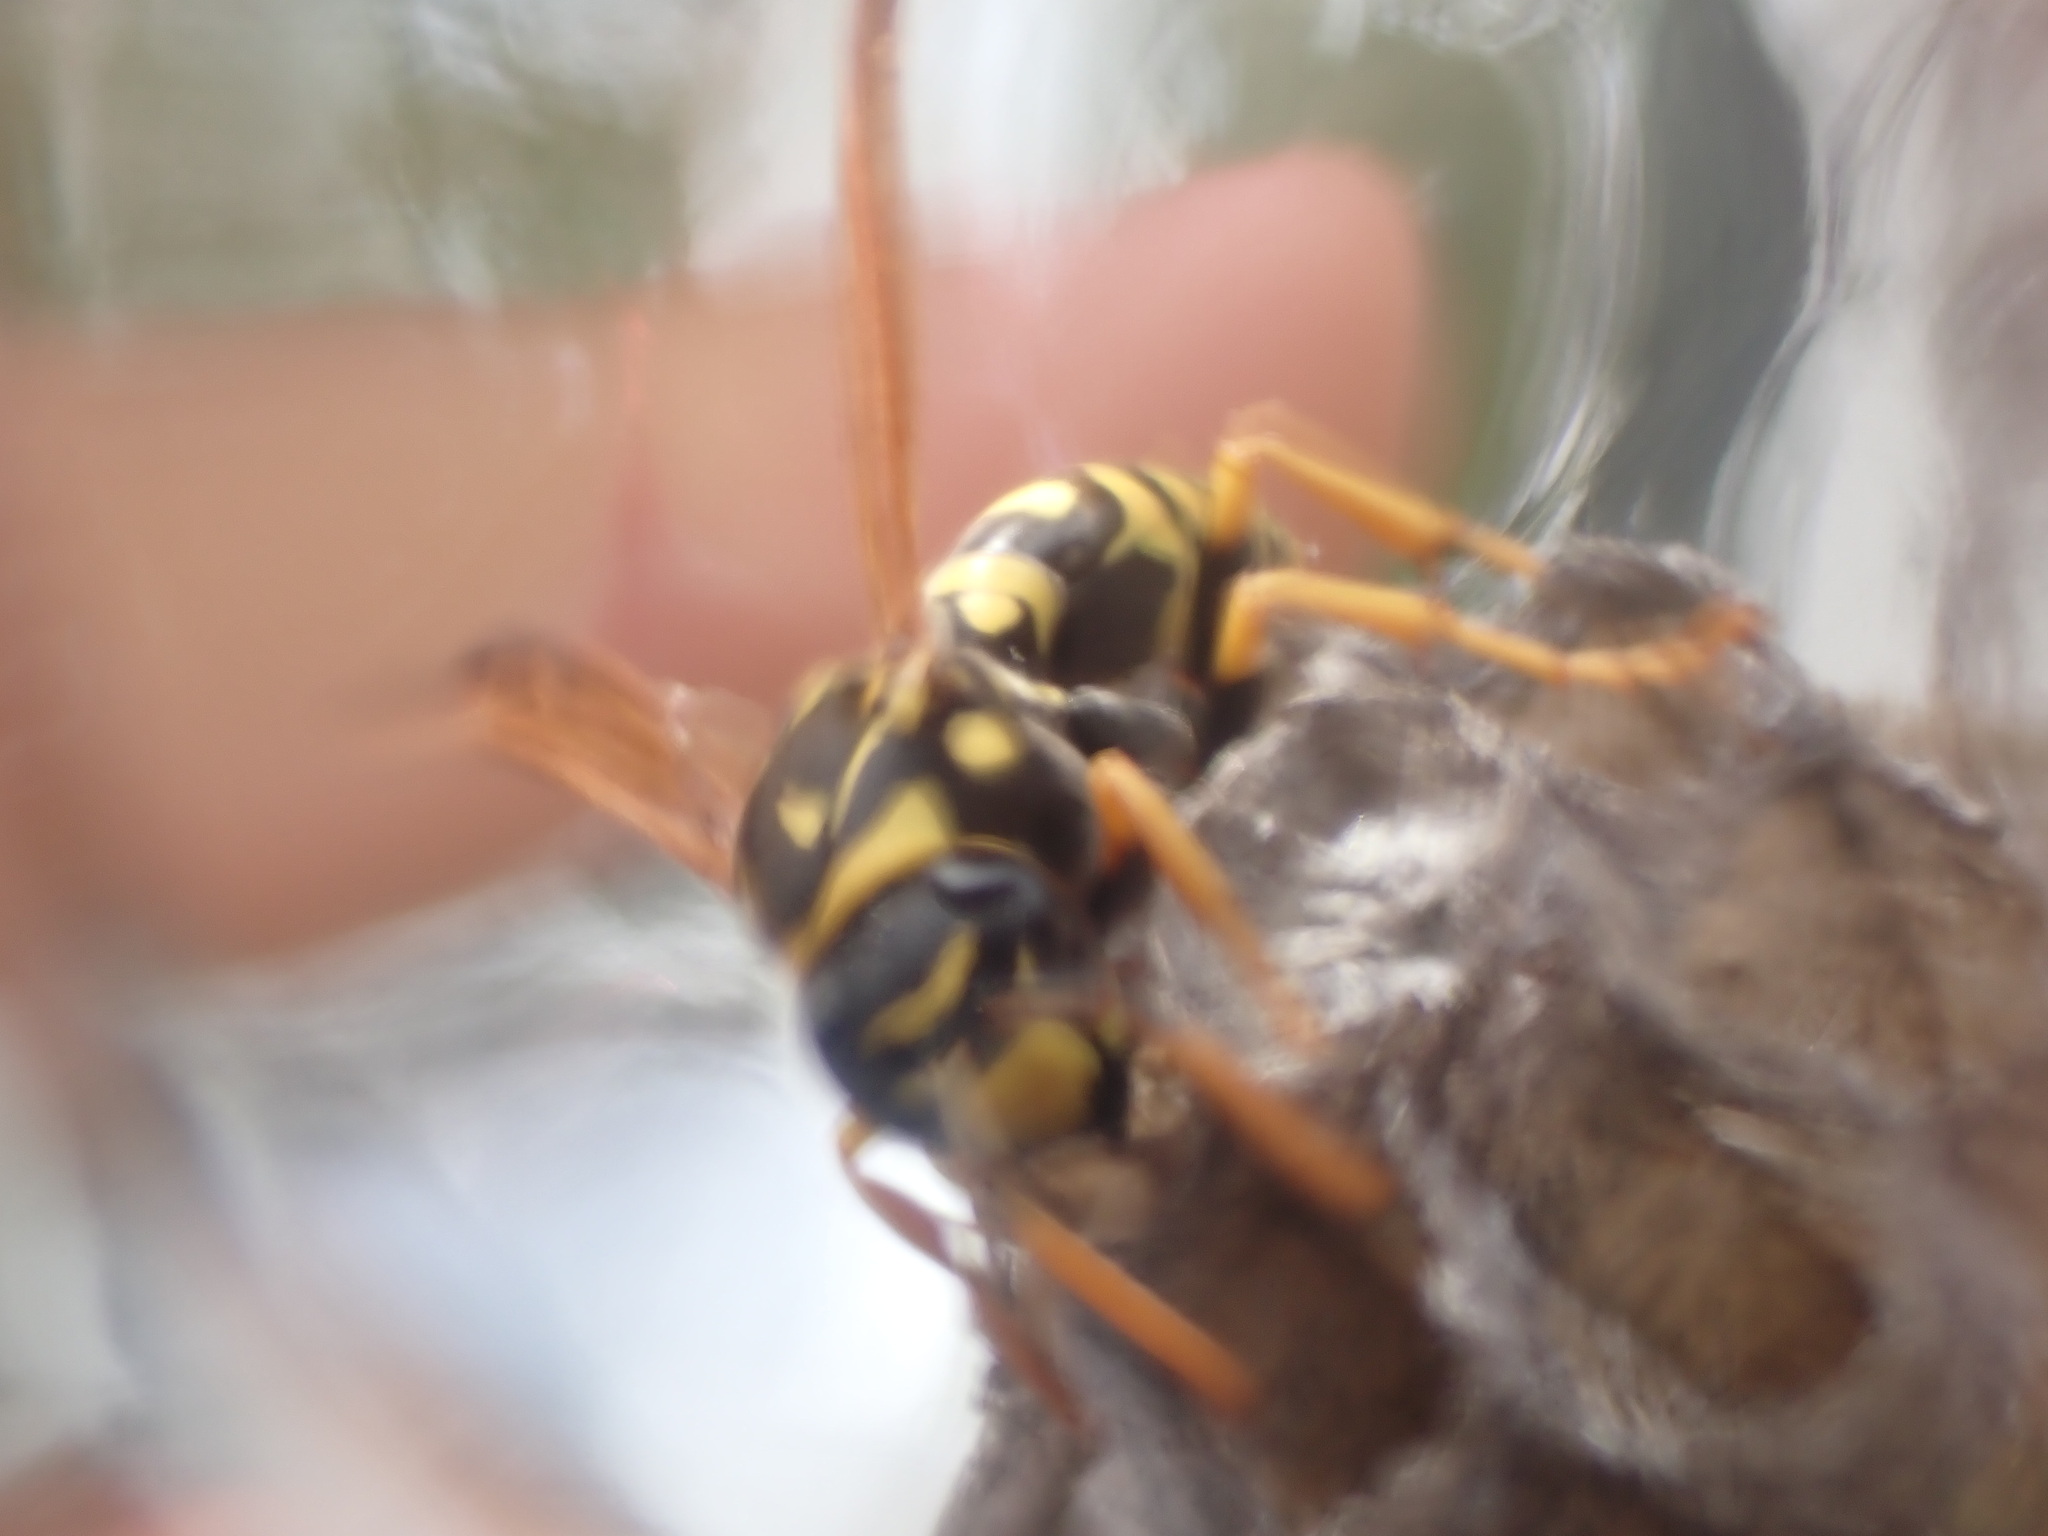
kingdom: Animalia
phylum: Arthropoda
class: Insecta
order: Hymenoptera
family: Eumenidae
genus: Polistes
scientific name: Polistes dominula
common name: Paper wasp
